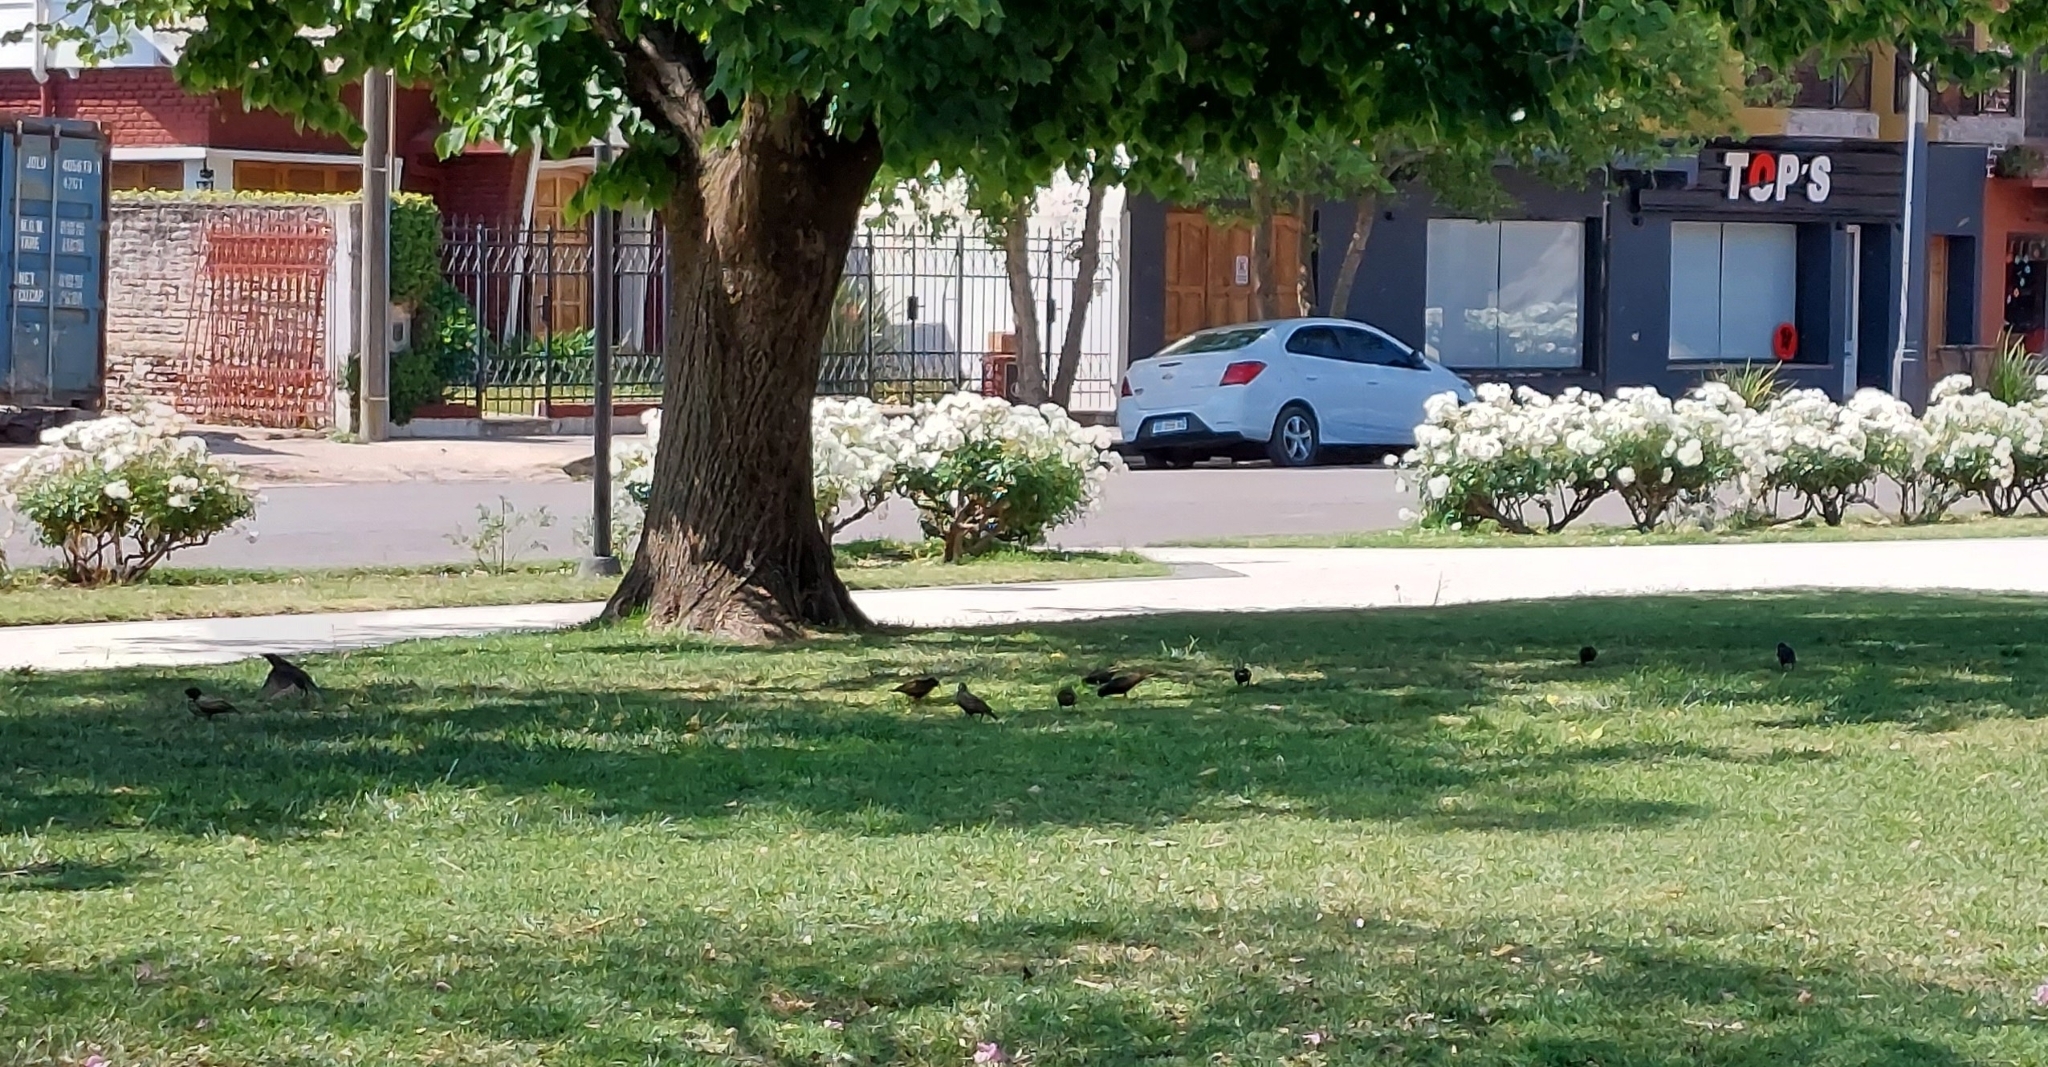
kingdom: Animalia
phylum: Chordata
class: Aves
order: Passeriformes
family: Sturnidae
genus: Sturnus
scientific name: Sturnus vulgaris
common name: Common starling
